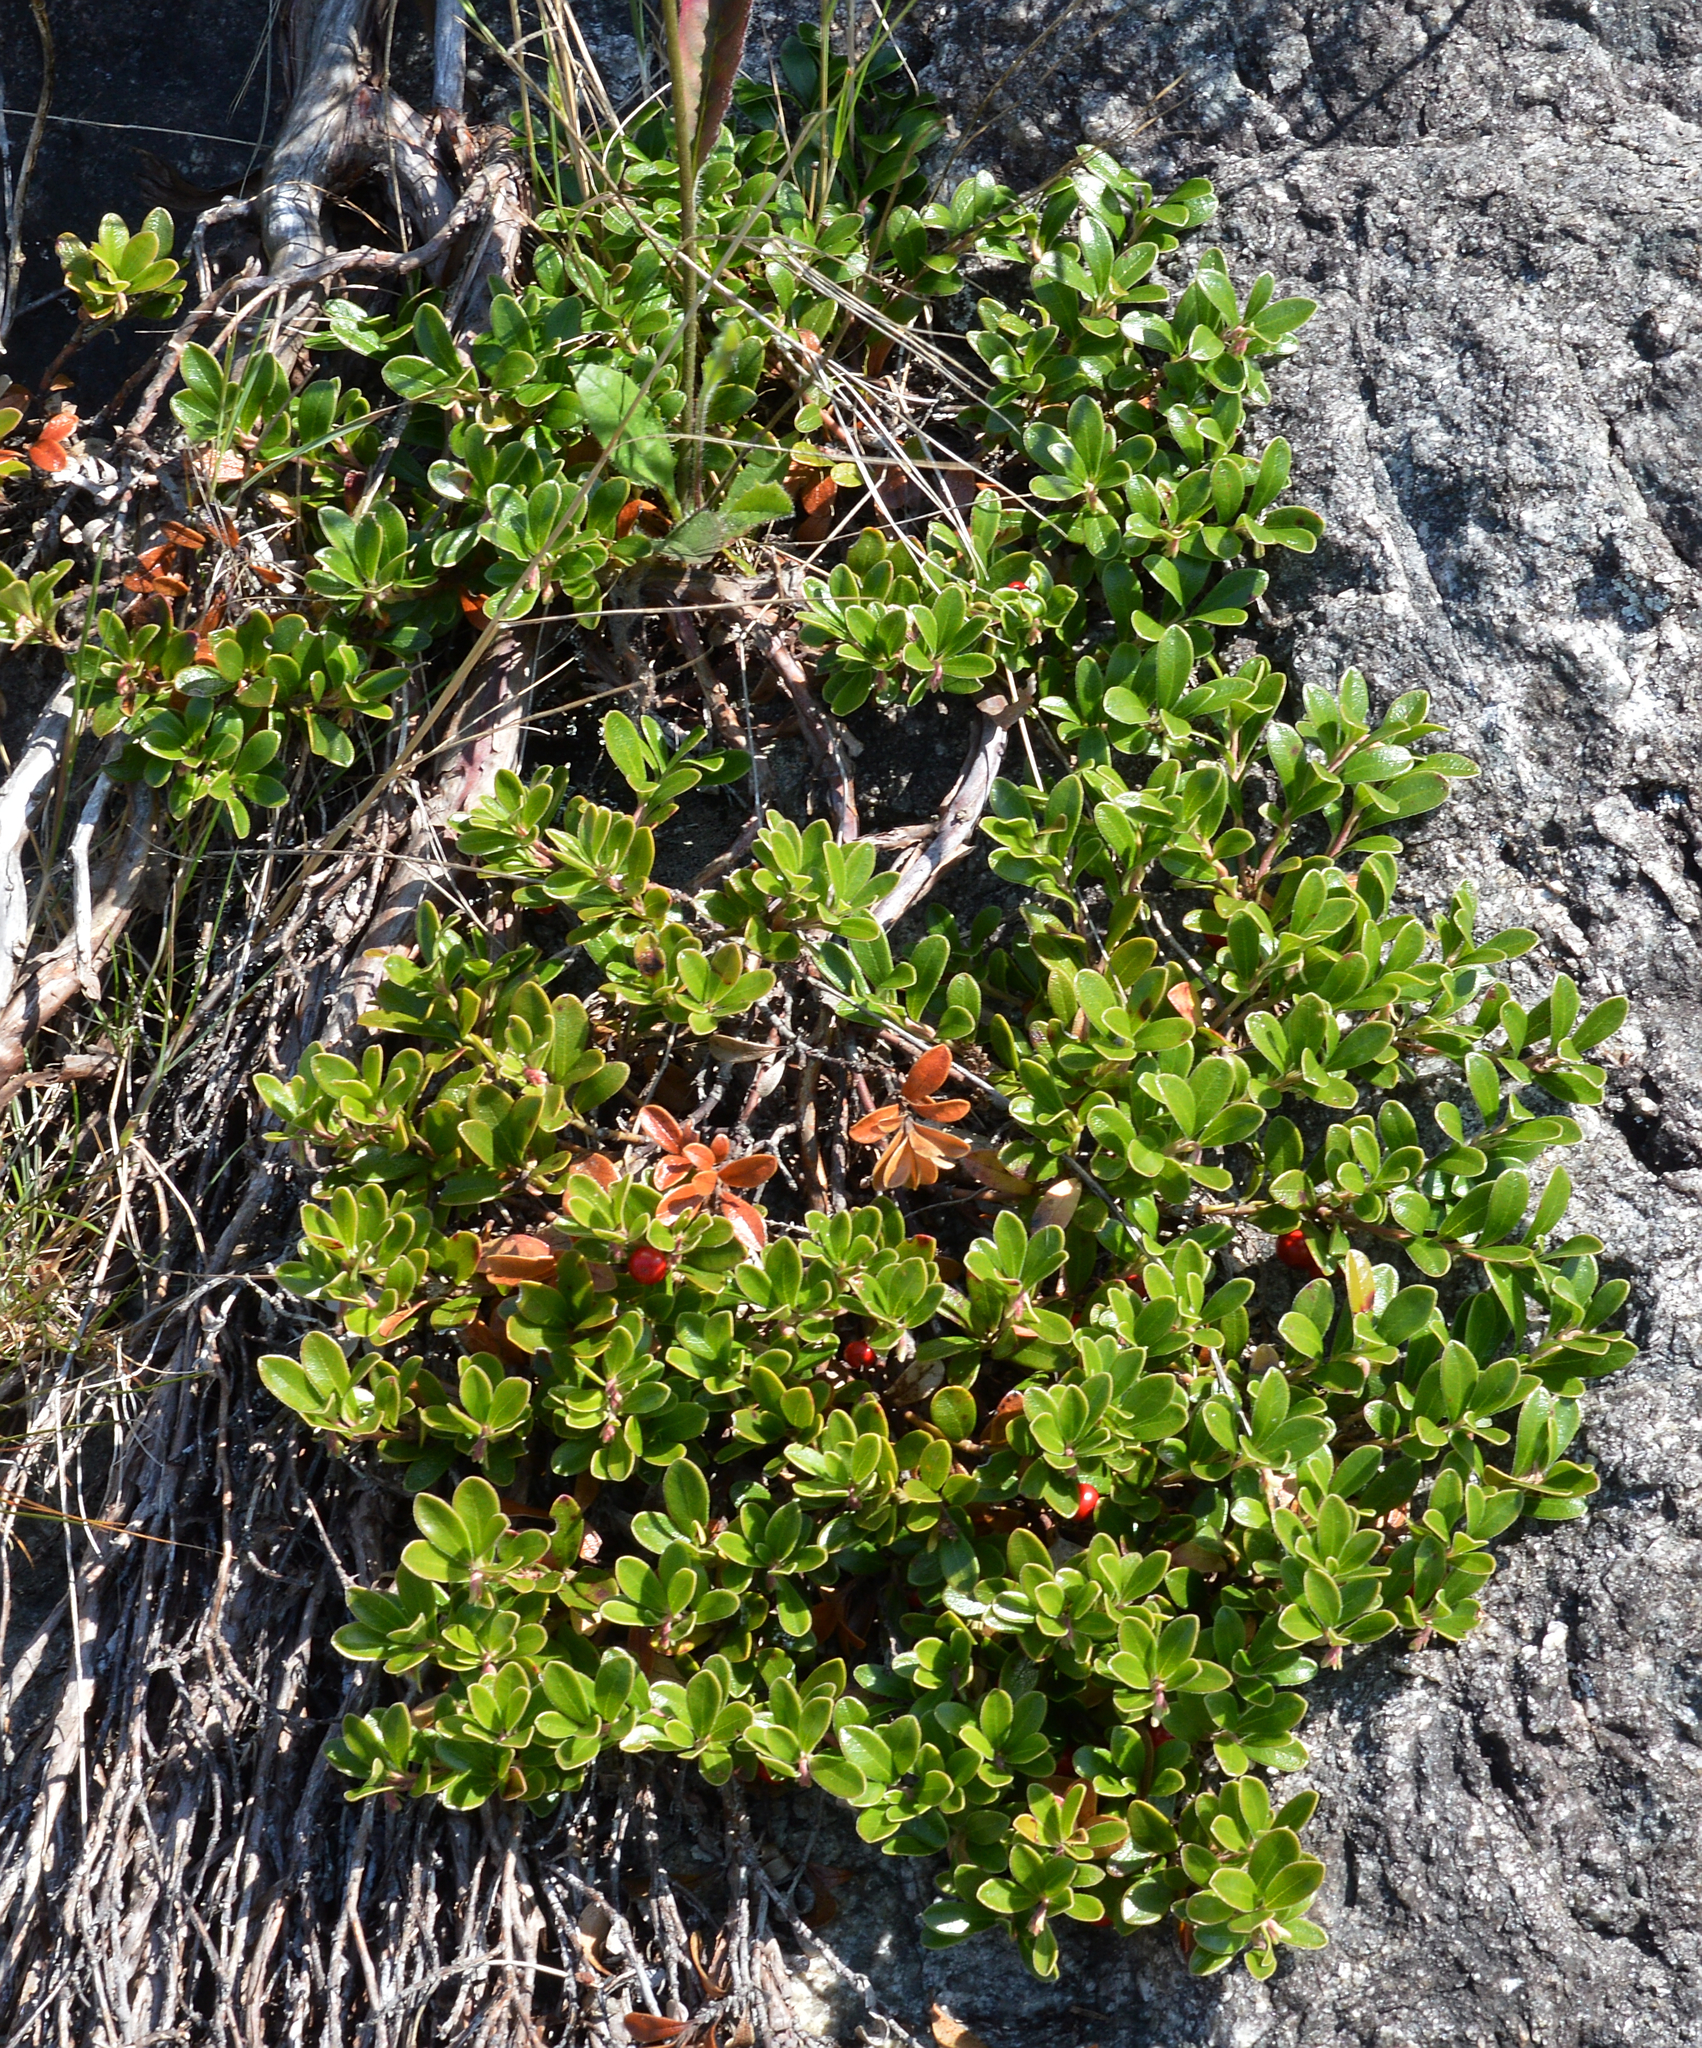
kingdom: Plantae
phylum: Tracheophyta
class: Magnoliopsida
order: Ericales
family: Ericaceae
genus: Arctostaphylos
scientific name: Arctostaphylos uva-ursi
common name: Bearberry
